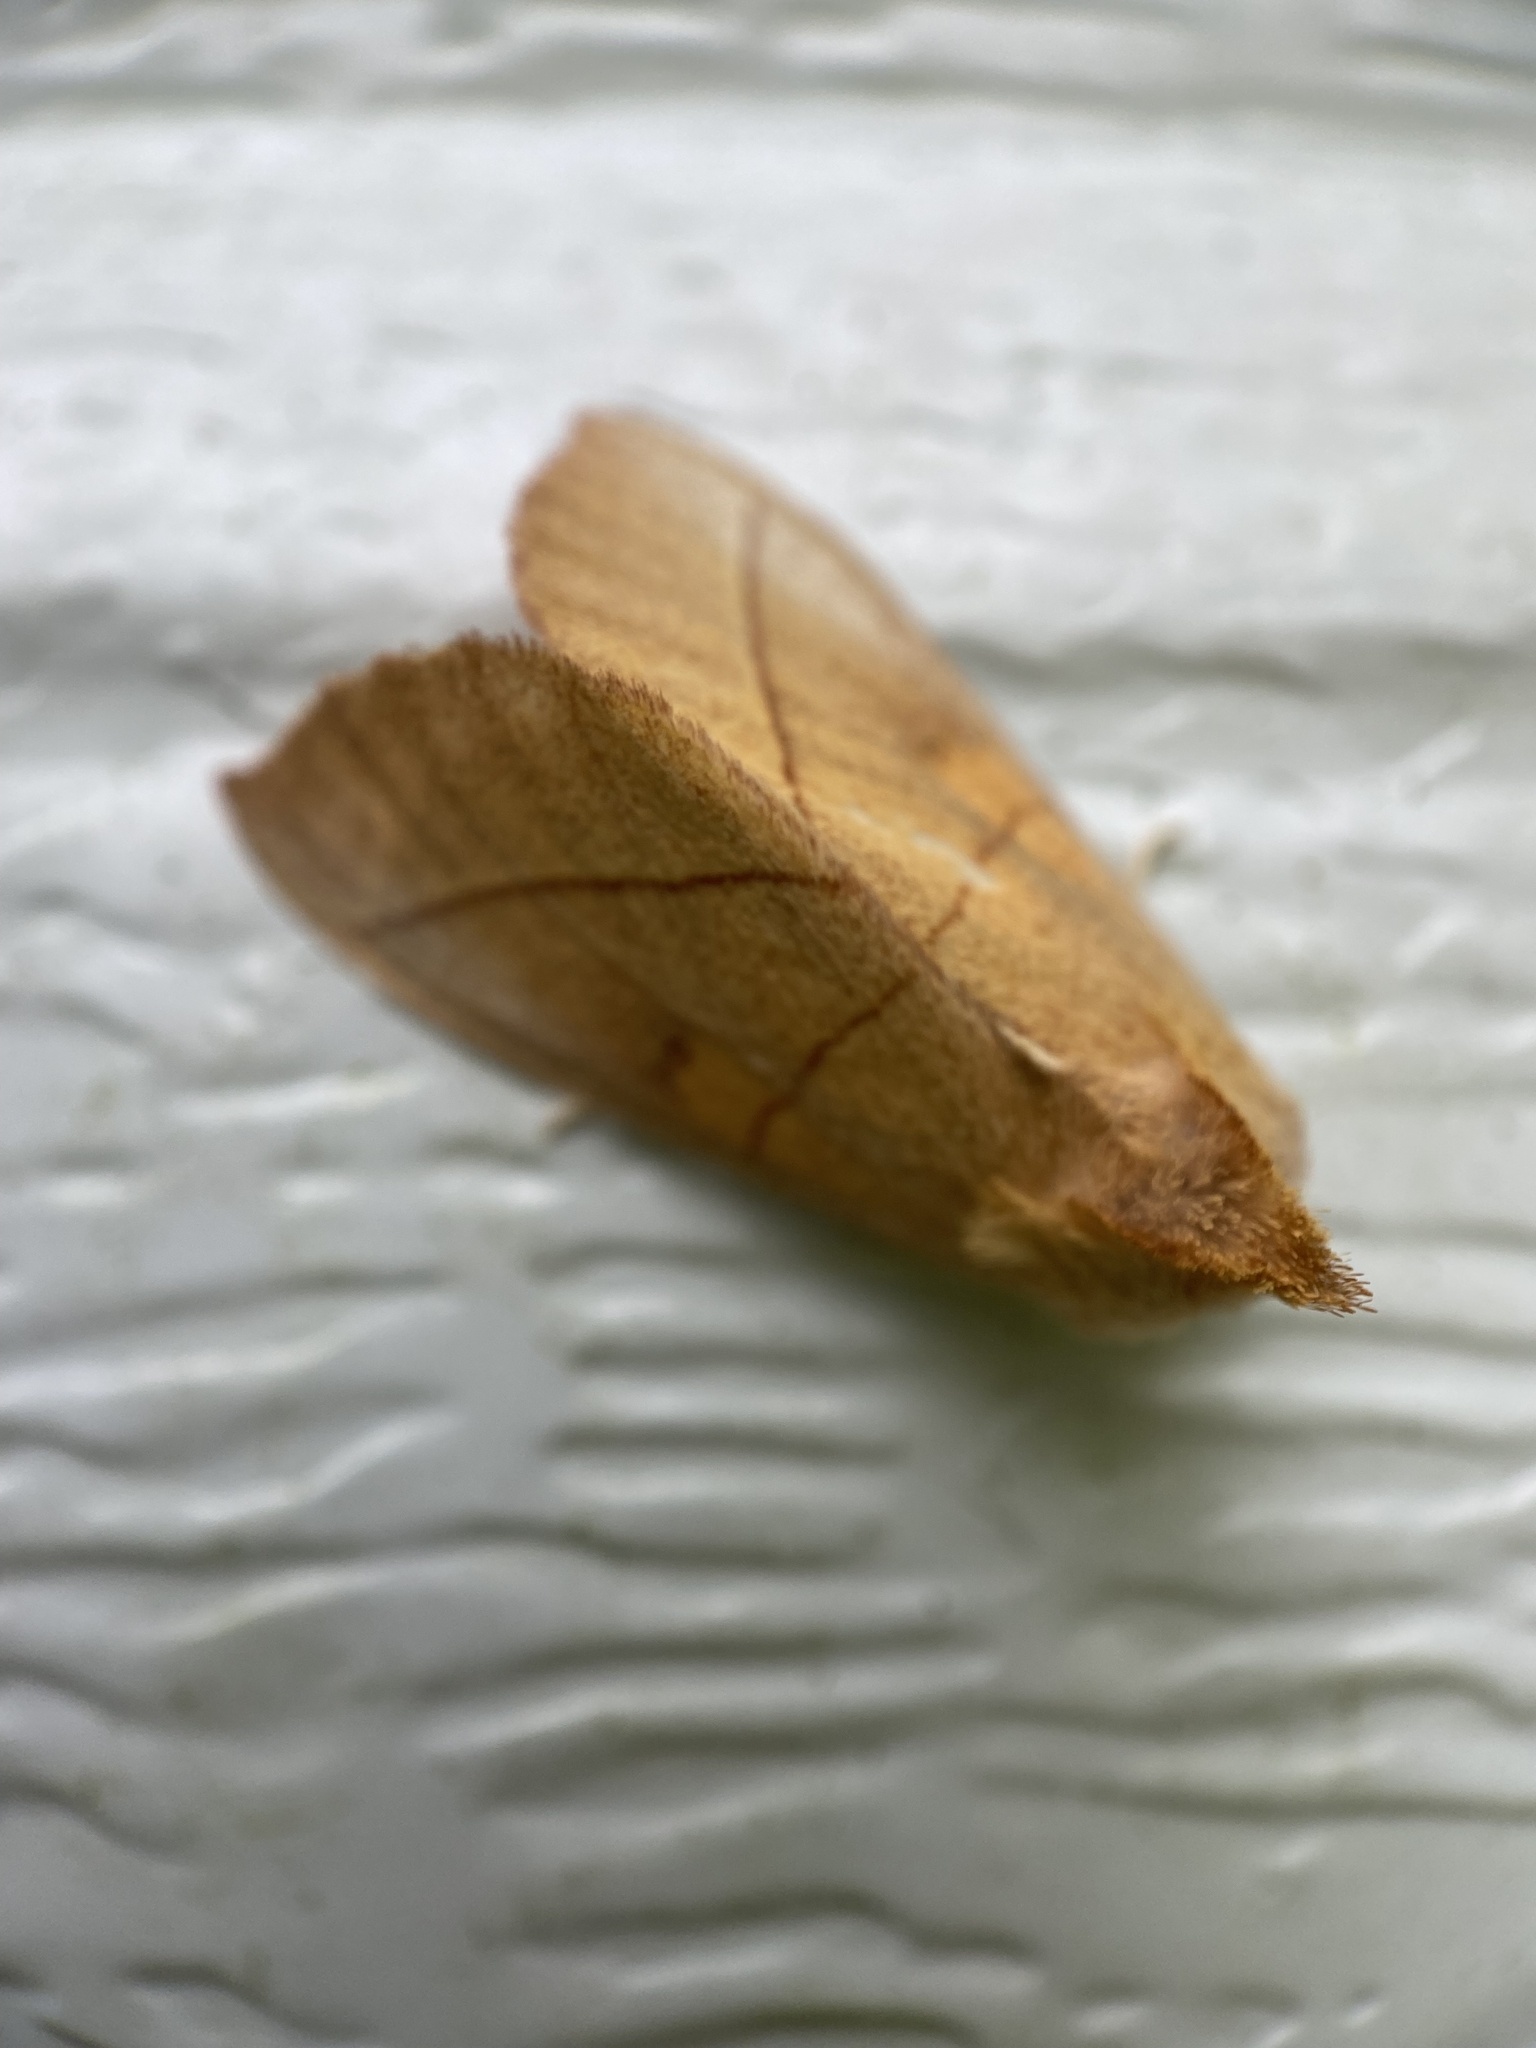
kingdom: Animalia
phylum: Arthropoda
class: Insecta
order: Lepidoptera
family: Notodontidae
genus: Nadata
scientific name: Nadata gibbosa
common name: White-dotted prominent
